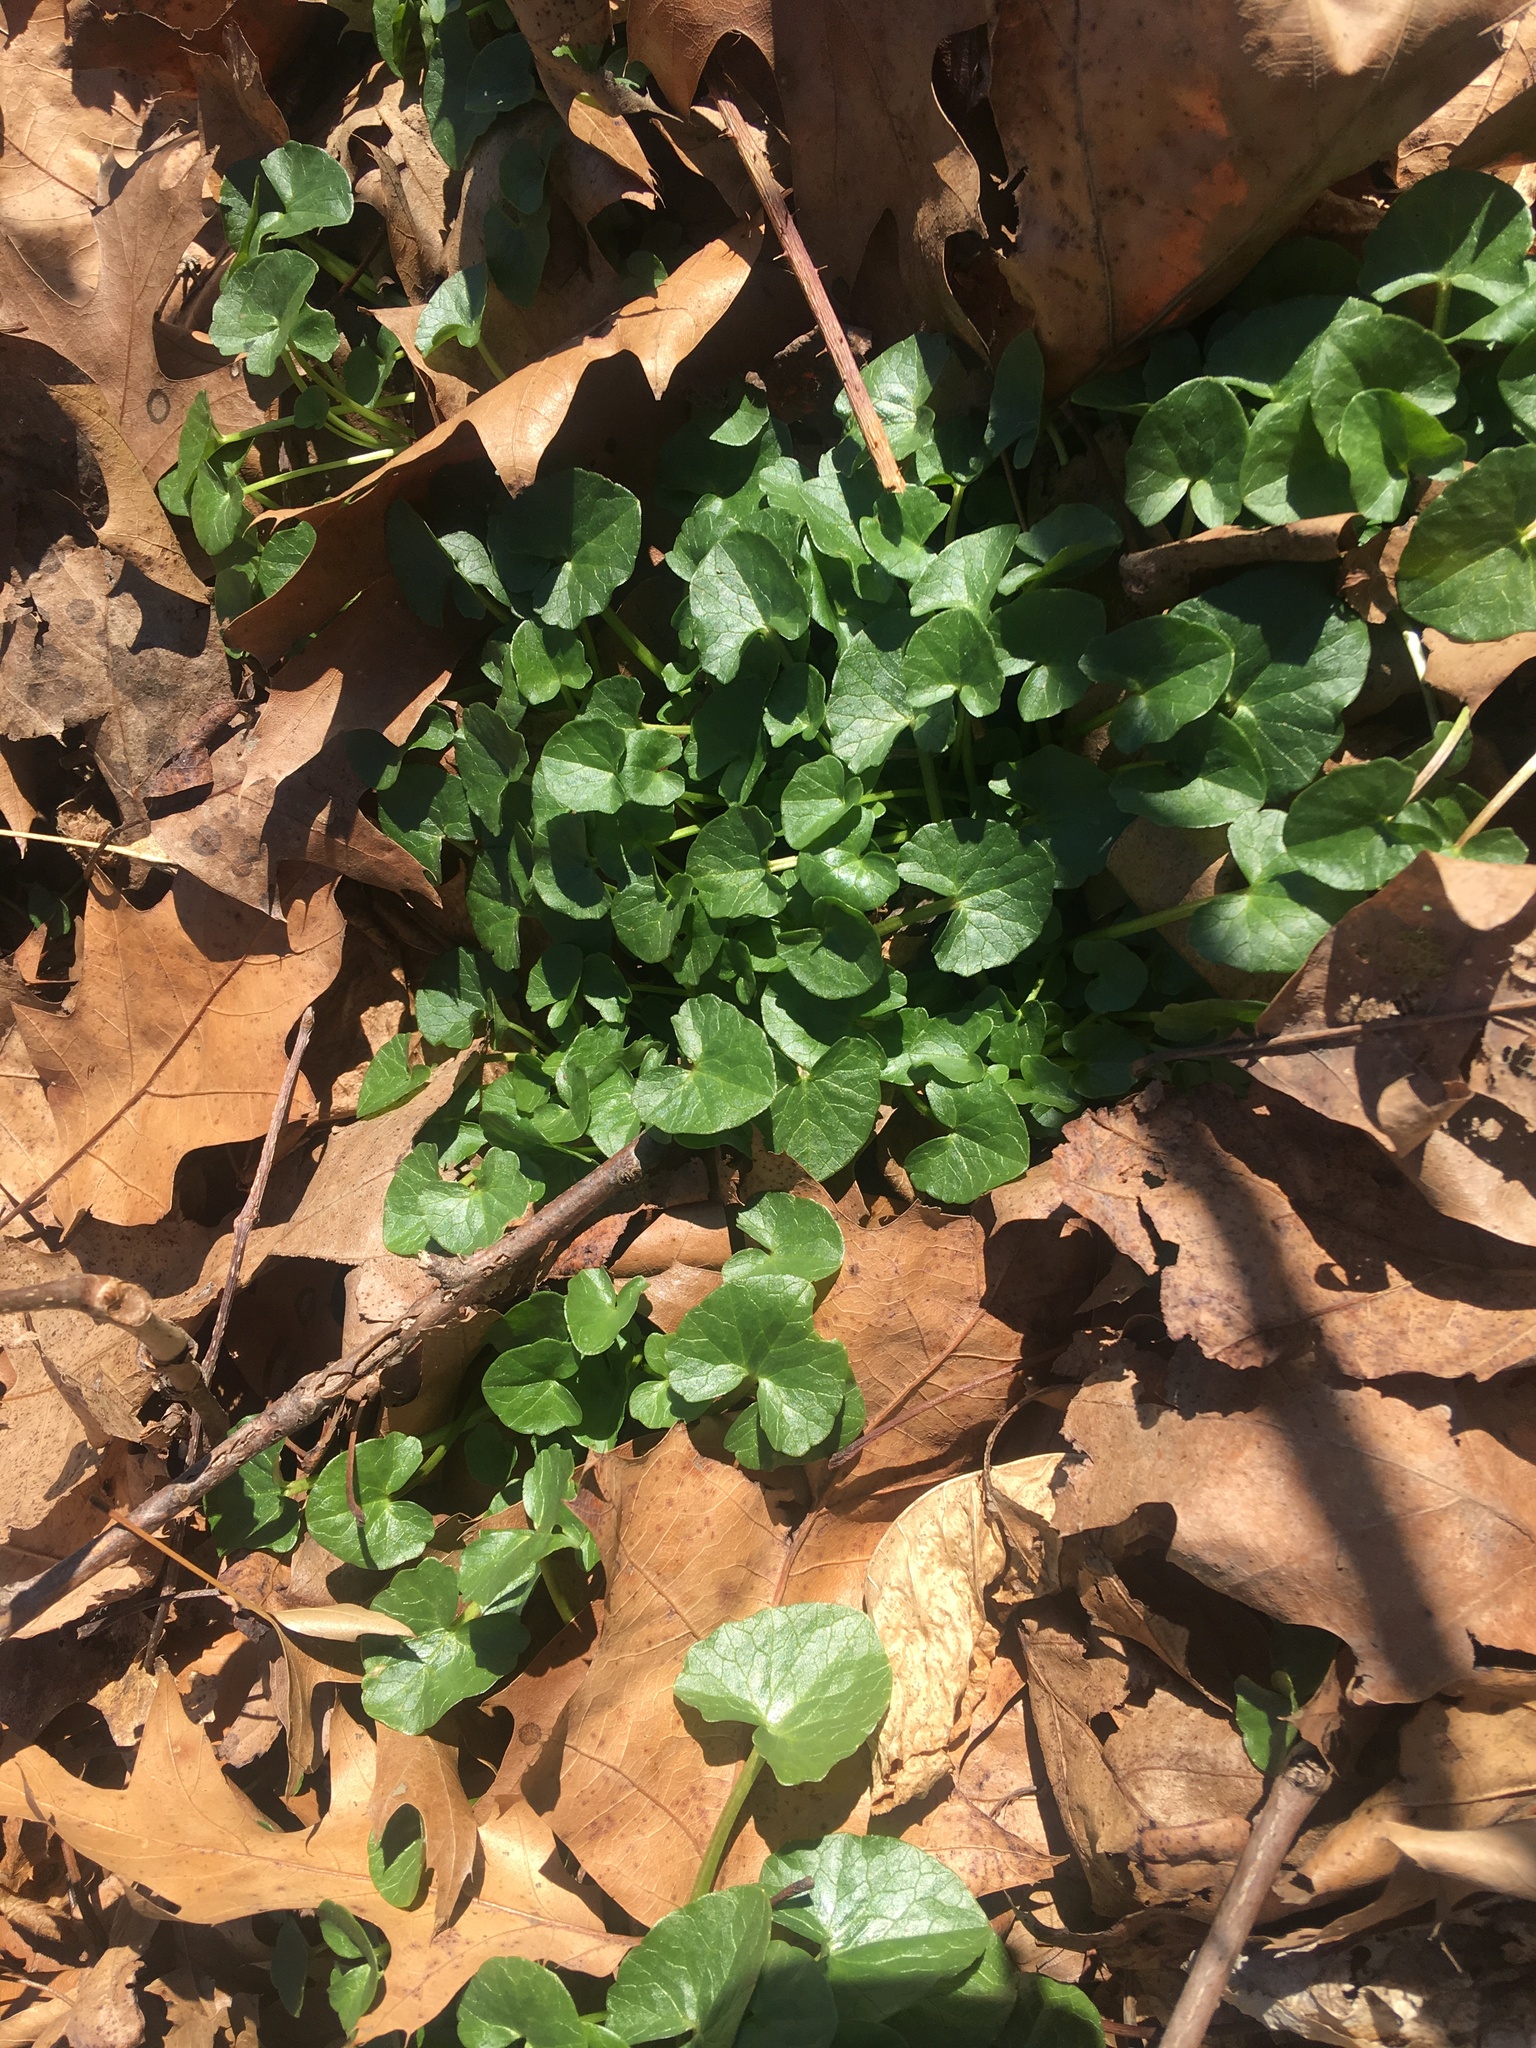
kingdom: Plantae
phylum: Tracheophyta
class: Magnoliopsida
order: Ranunculales
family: Ranunculaceae
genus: Ficaria
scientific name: Ficaria verna
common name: Lesser celandine
